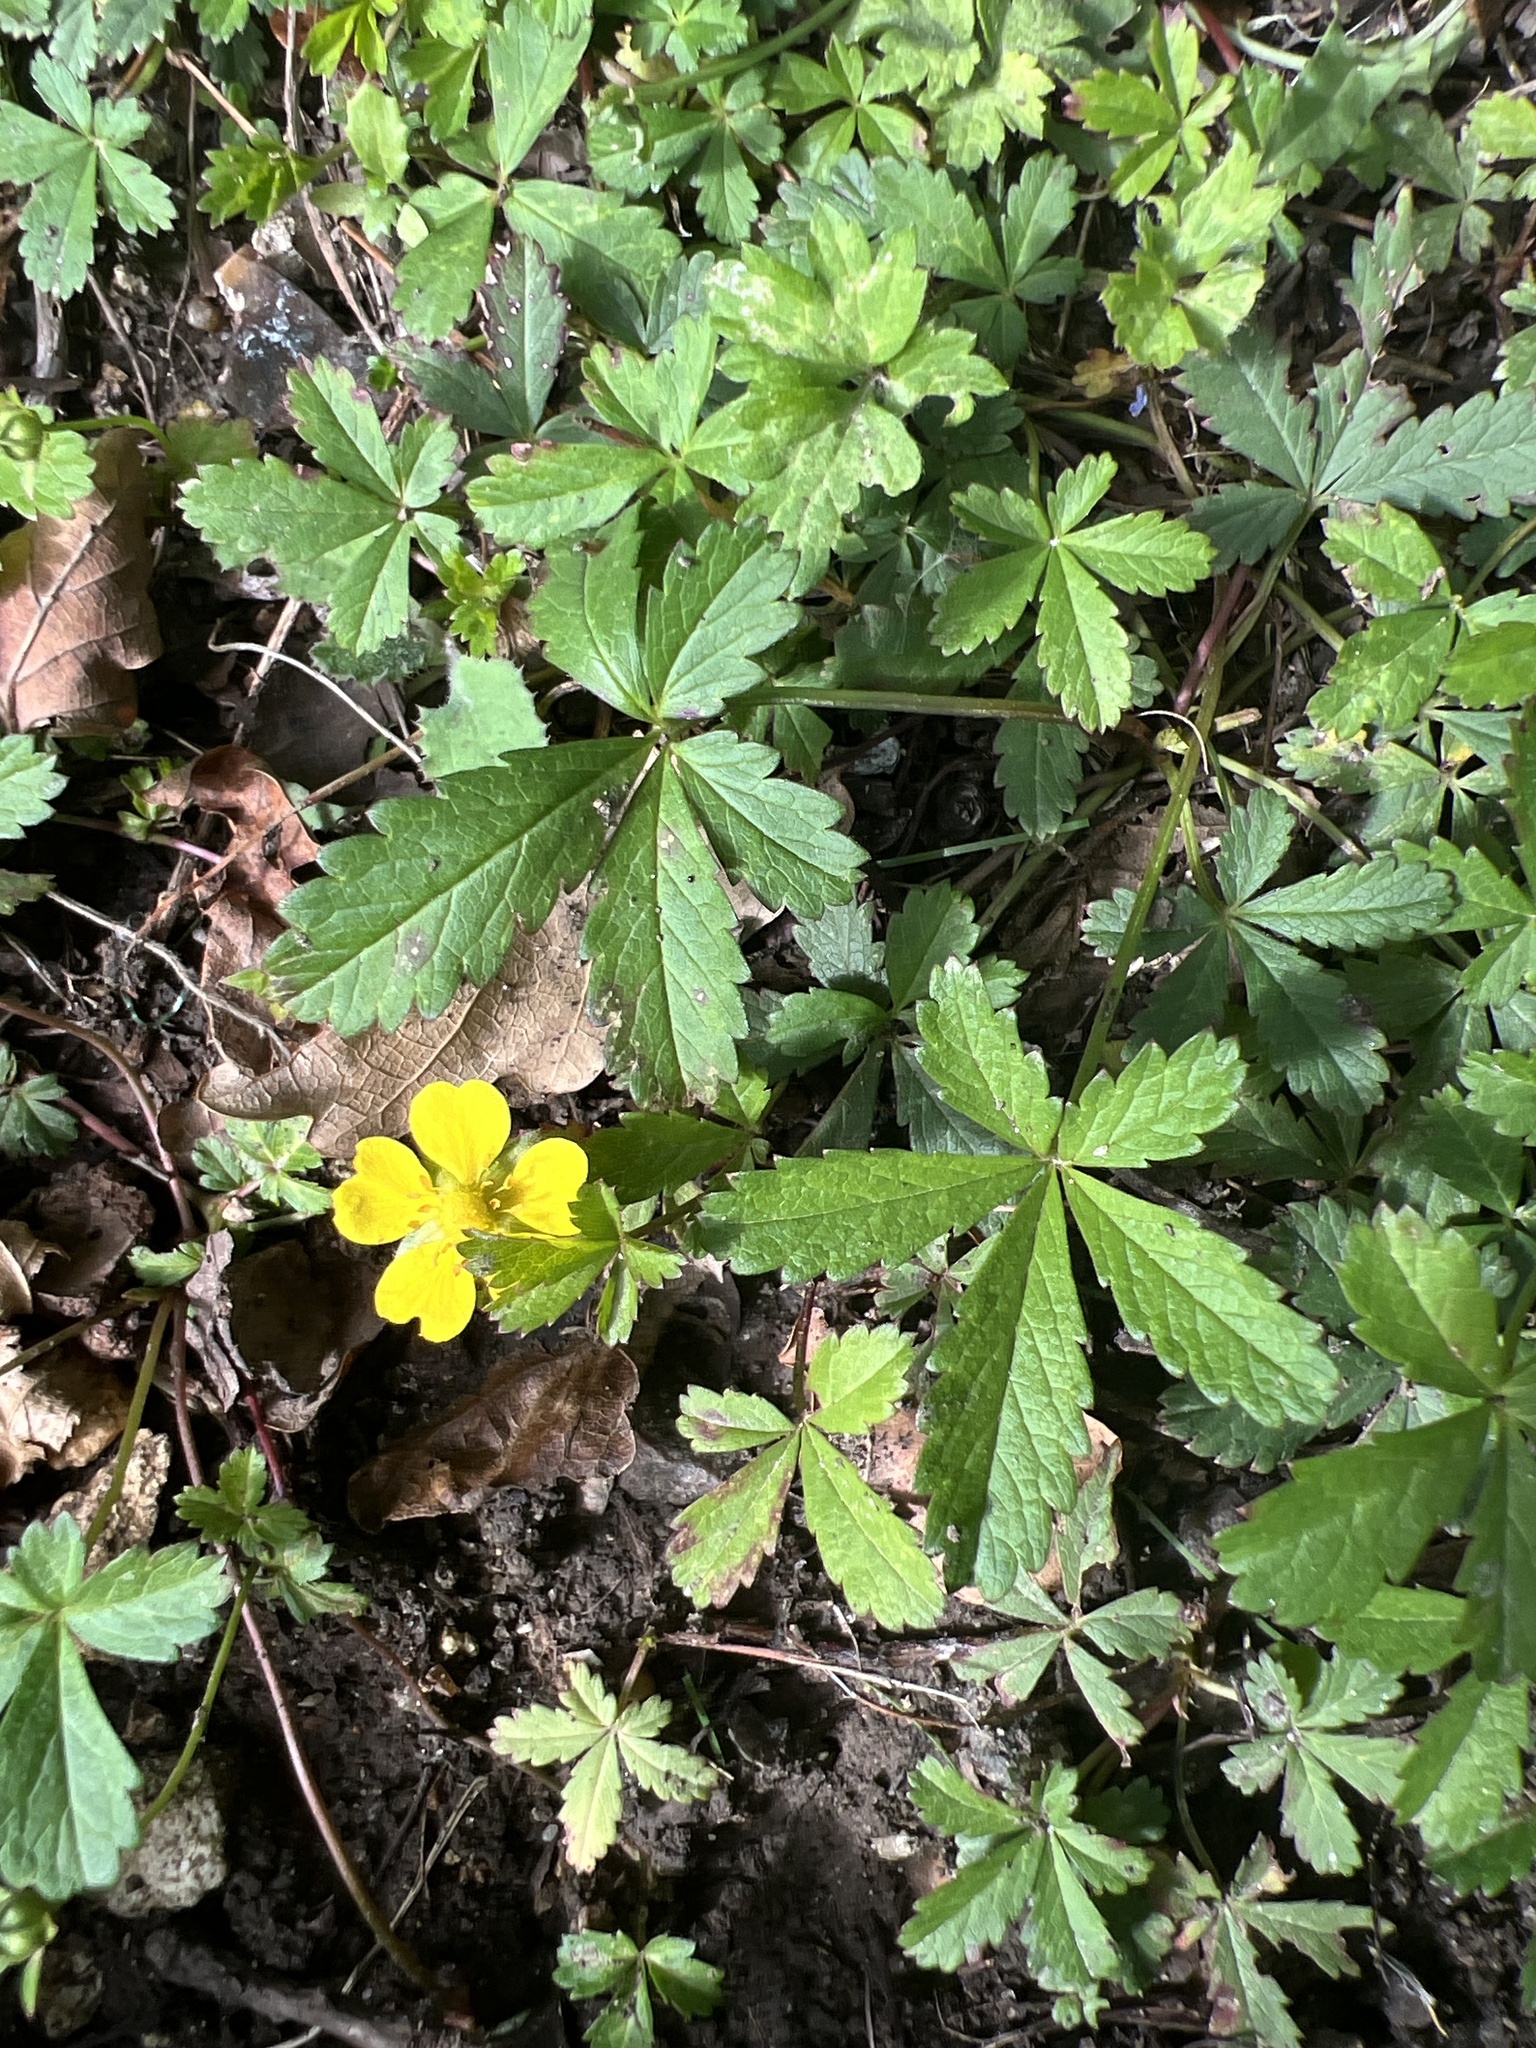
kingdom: Plantae
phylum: Tracheophyta
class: Magnoliopsida
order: Rosales
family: Rosaceae
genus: Potentilla
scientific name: Potentilla reptans
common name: Creeping cinquefoil
